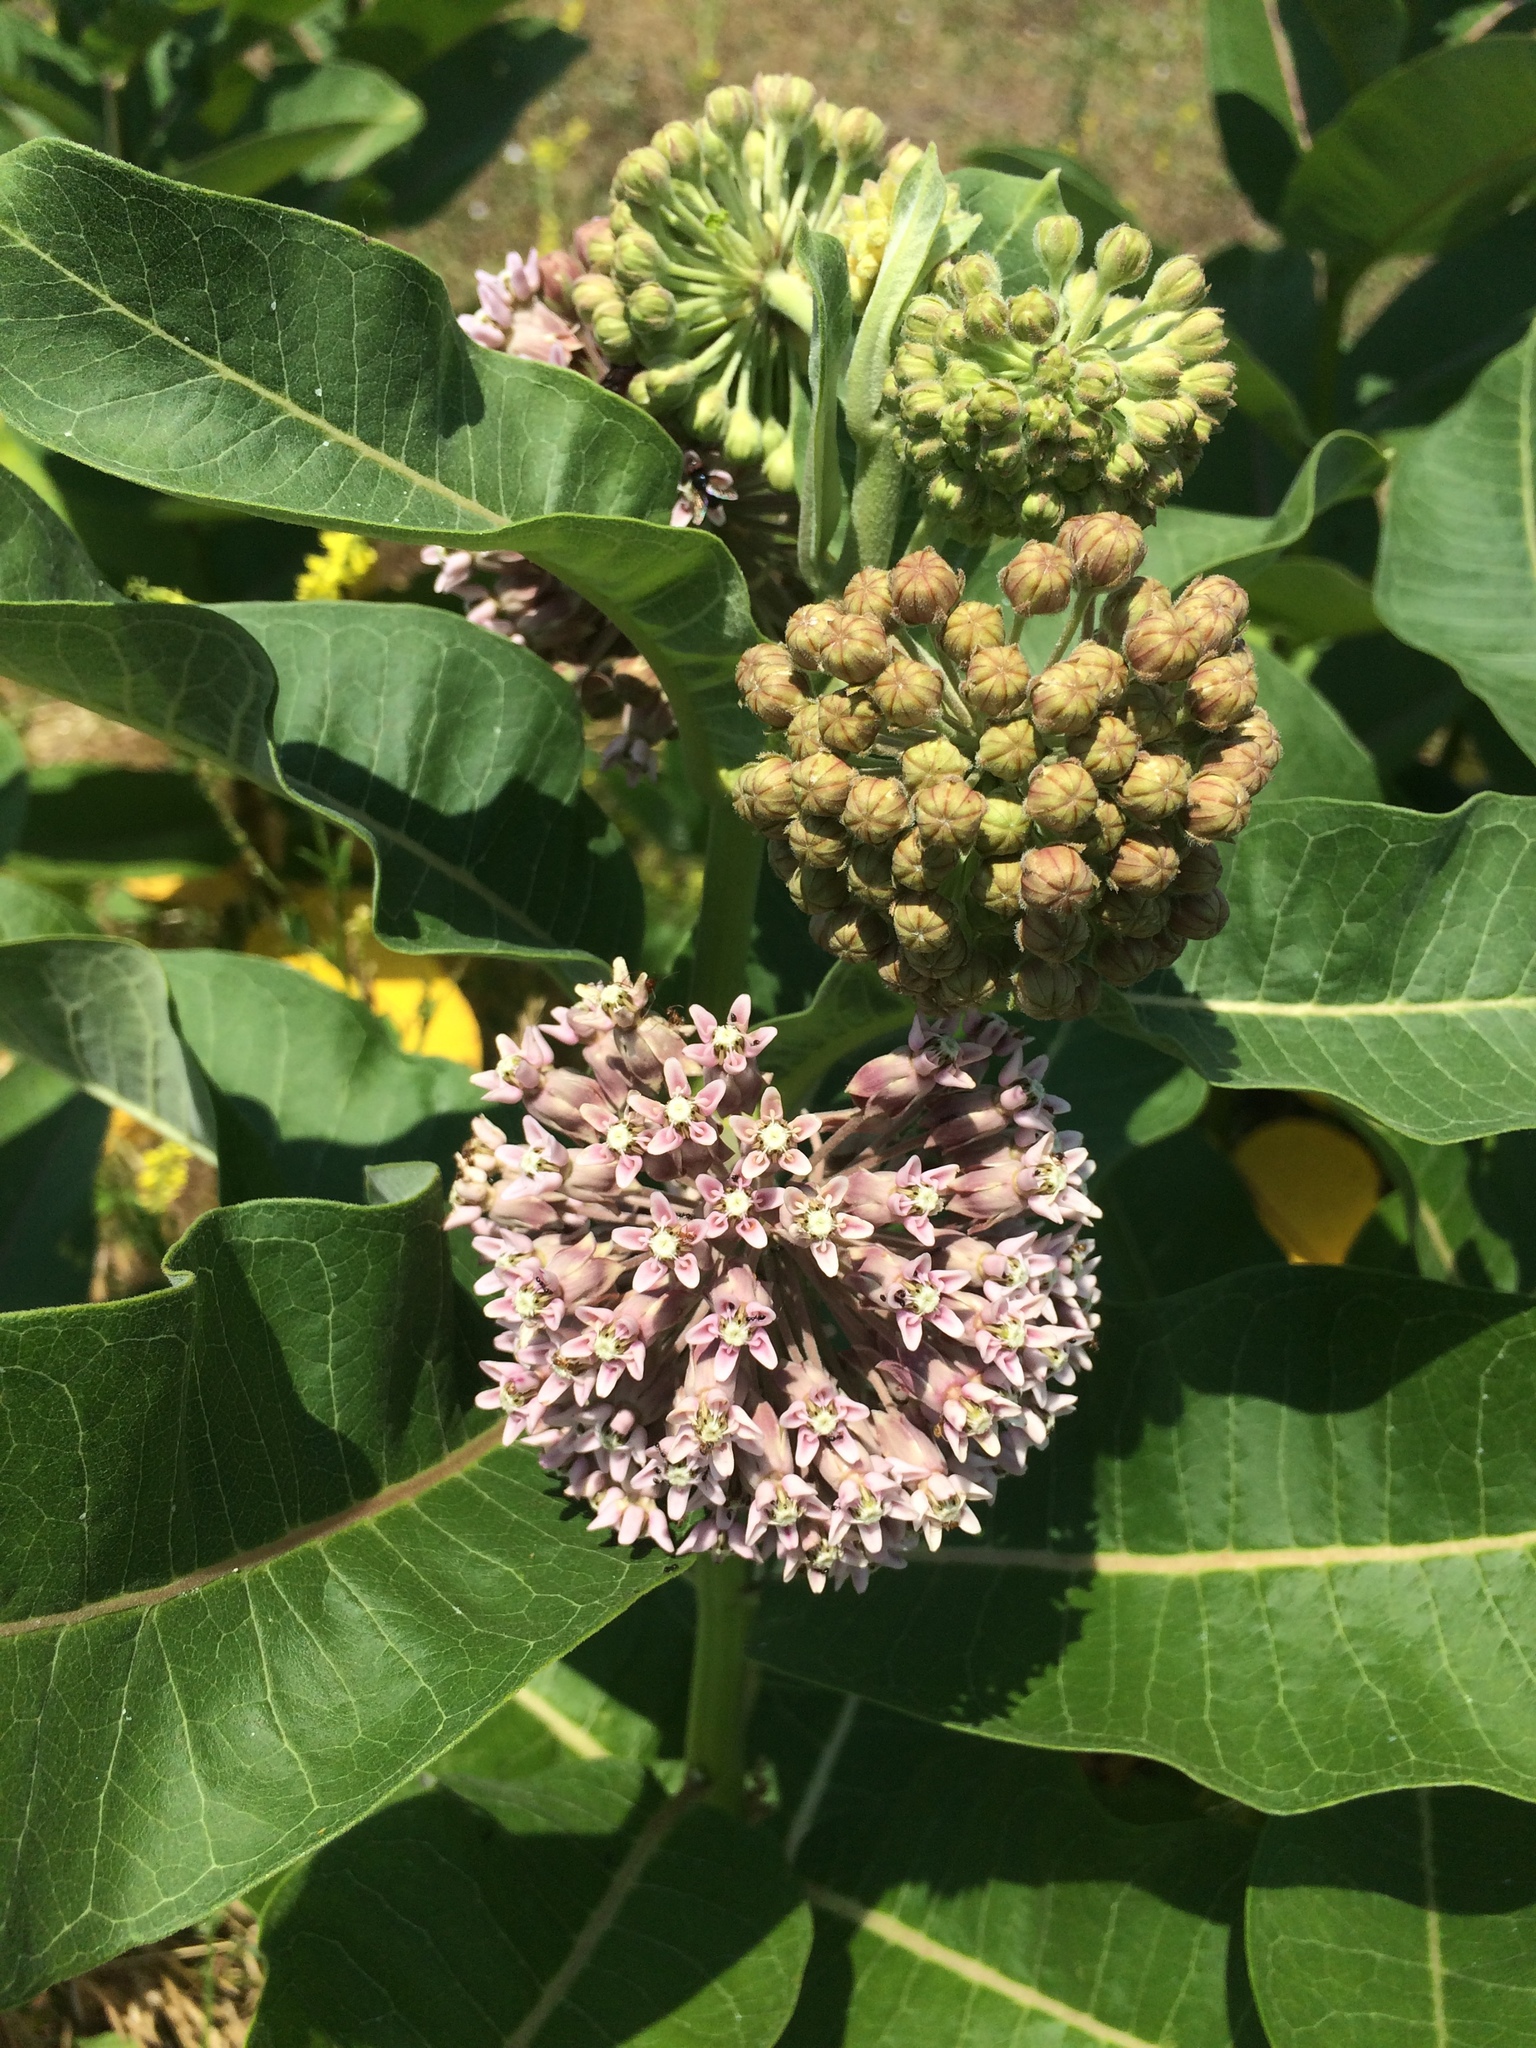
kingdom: Plantae
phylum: Tracheophyta
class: Magnoliopsida
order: Gentianales
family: Apocynaceae
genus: Asclepias
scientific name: Asclepias syriaca
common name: Common milkweed
